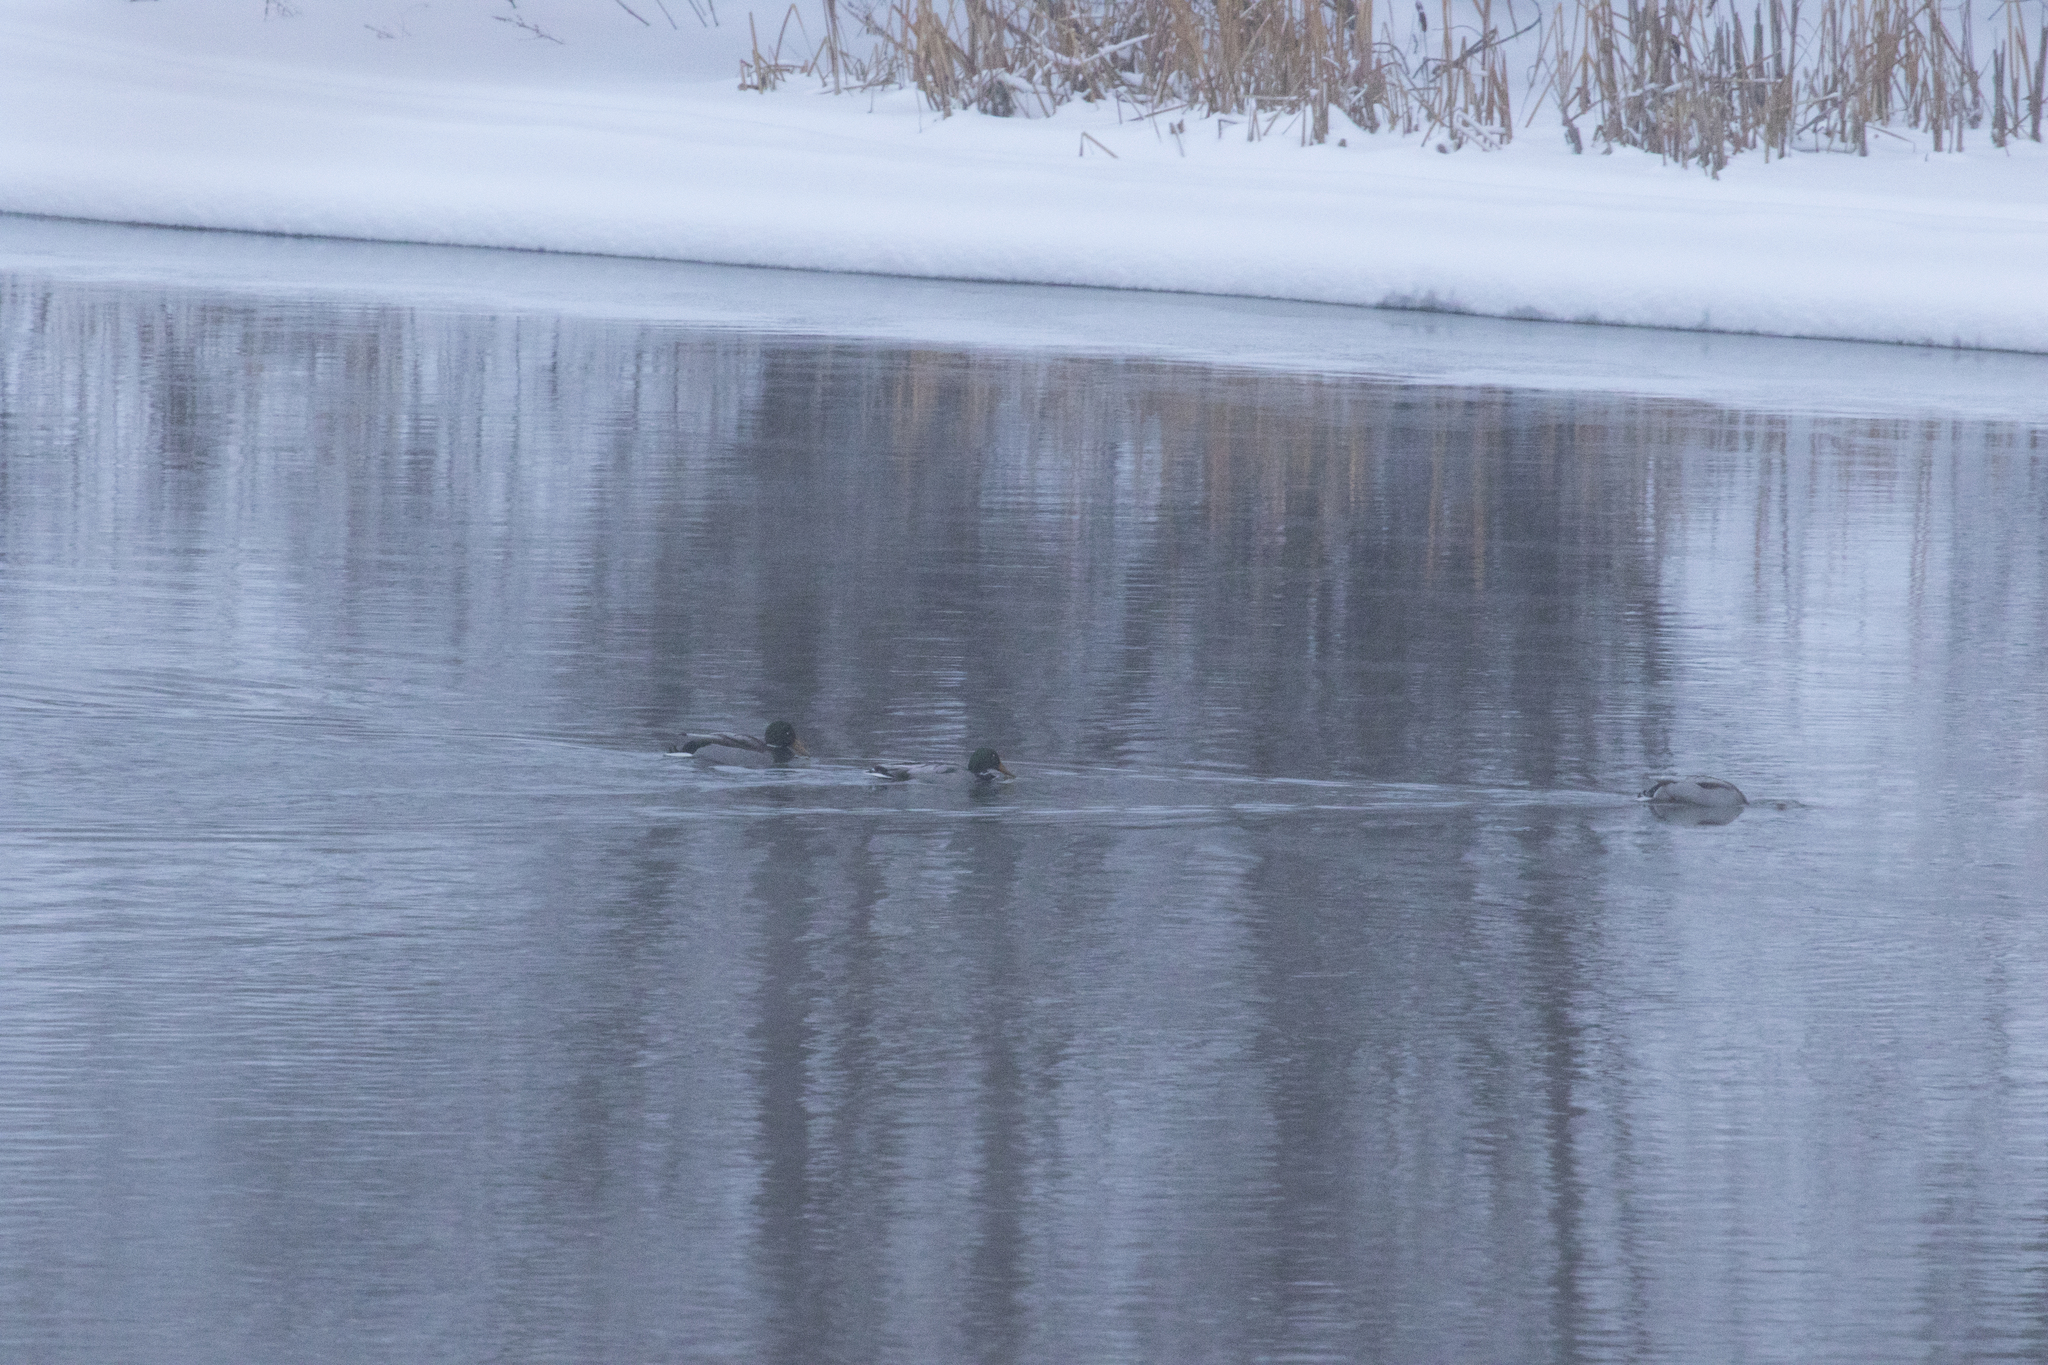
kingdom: Animalia
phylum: Chordata
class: Aves
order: Anseriformes
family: Anatidae
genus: Anas
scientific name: Anas platyrhynchos
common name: Mallard
